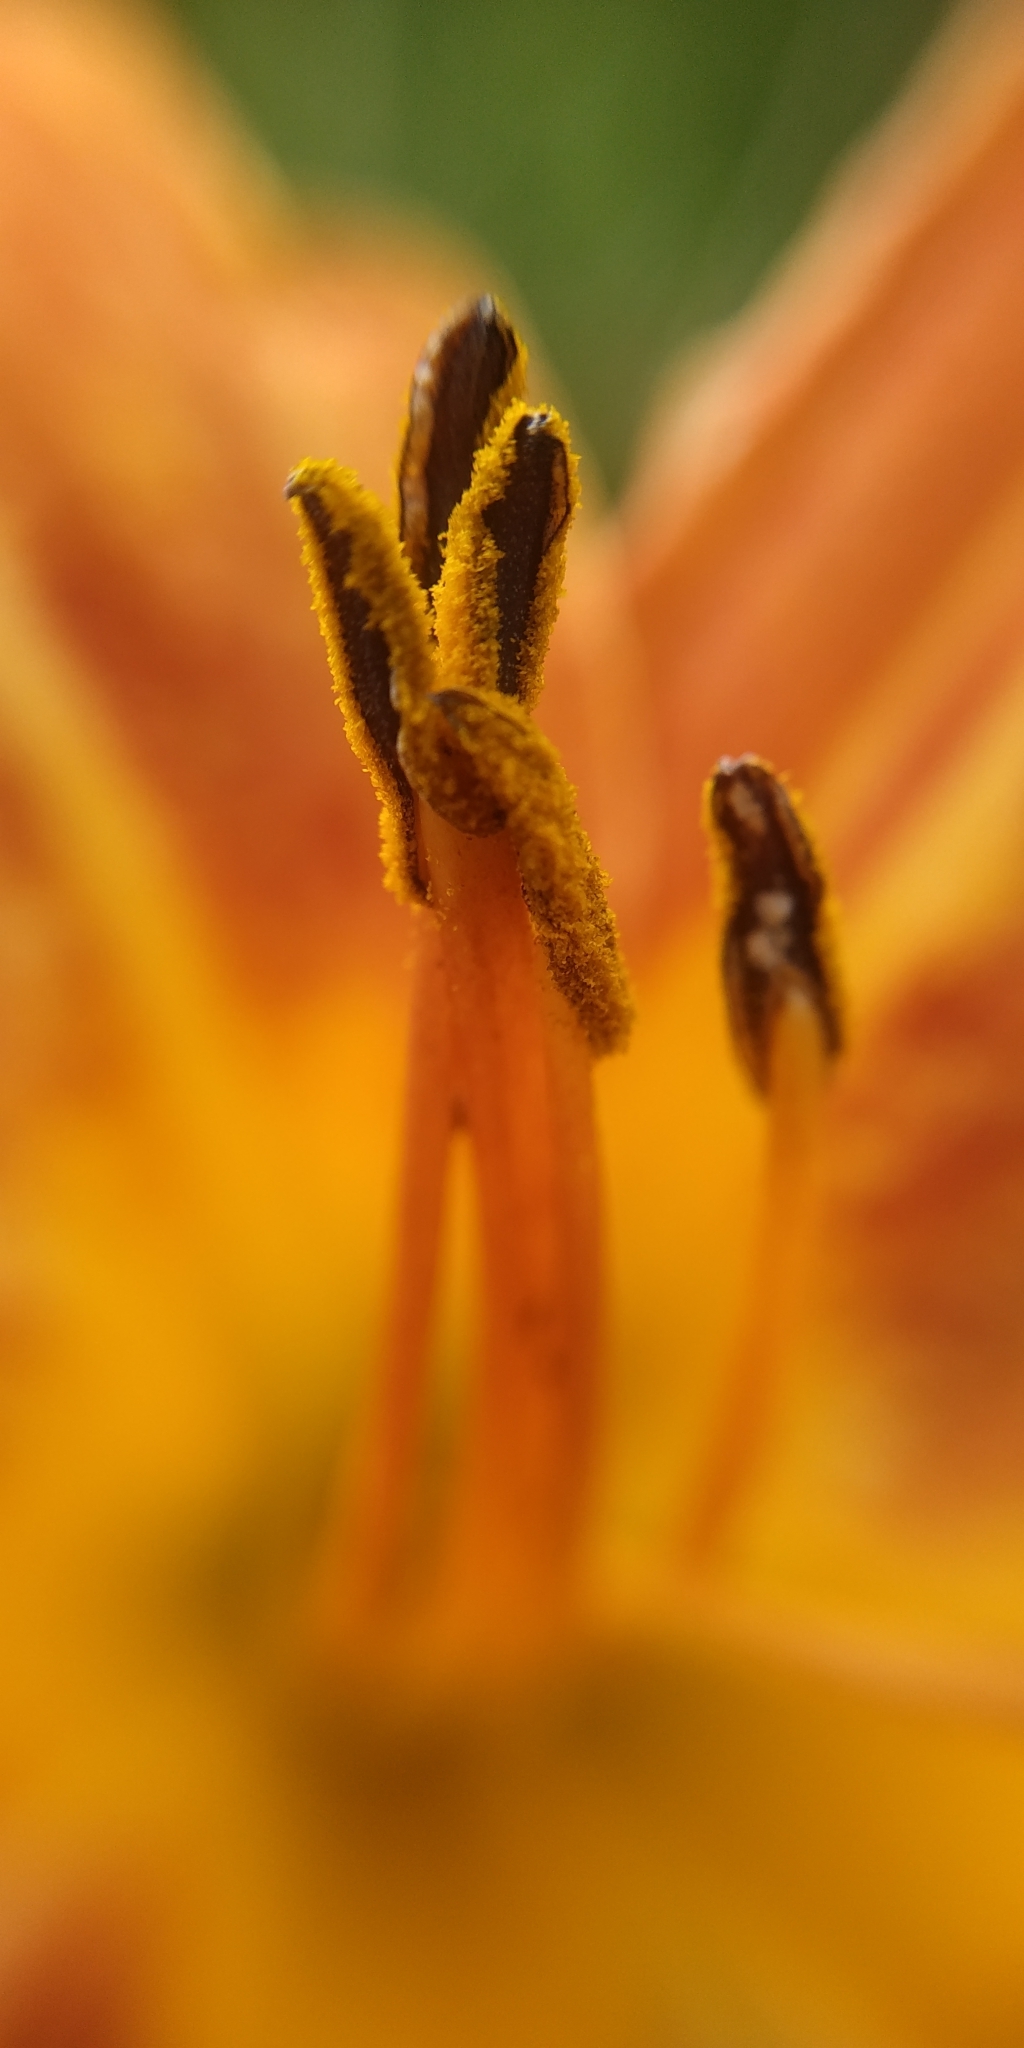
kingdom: Plantae
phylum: Tracheophyta
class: Liliopsida
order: Asparagales
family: Asphodelaceae
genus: Hemerocallis
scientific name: Hemerocallis fulva
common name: Orange day-lily
